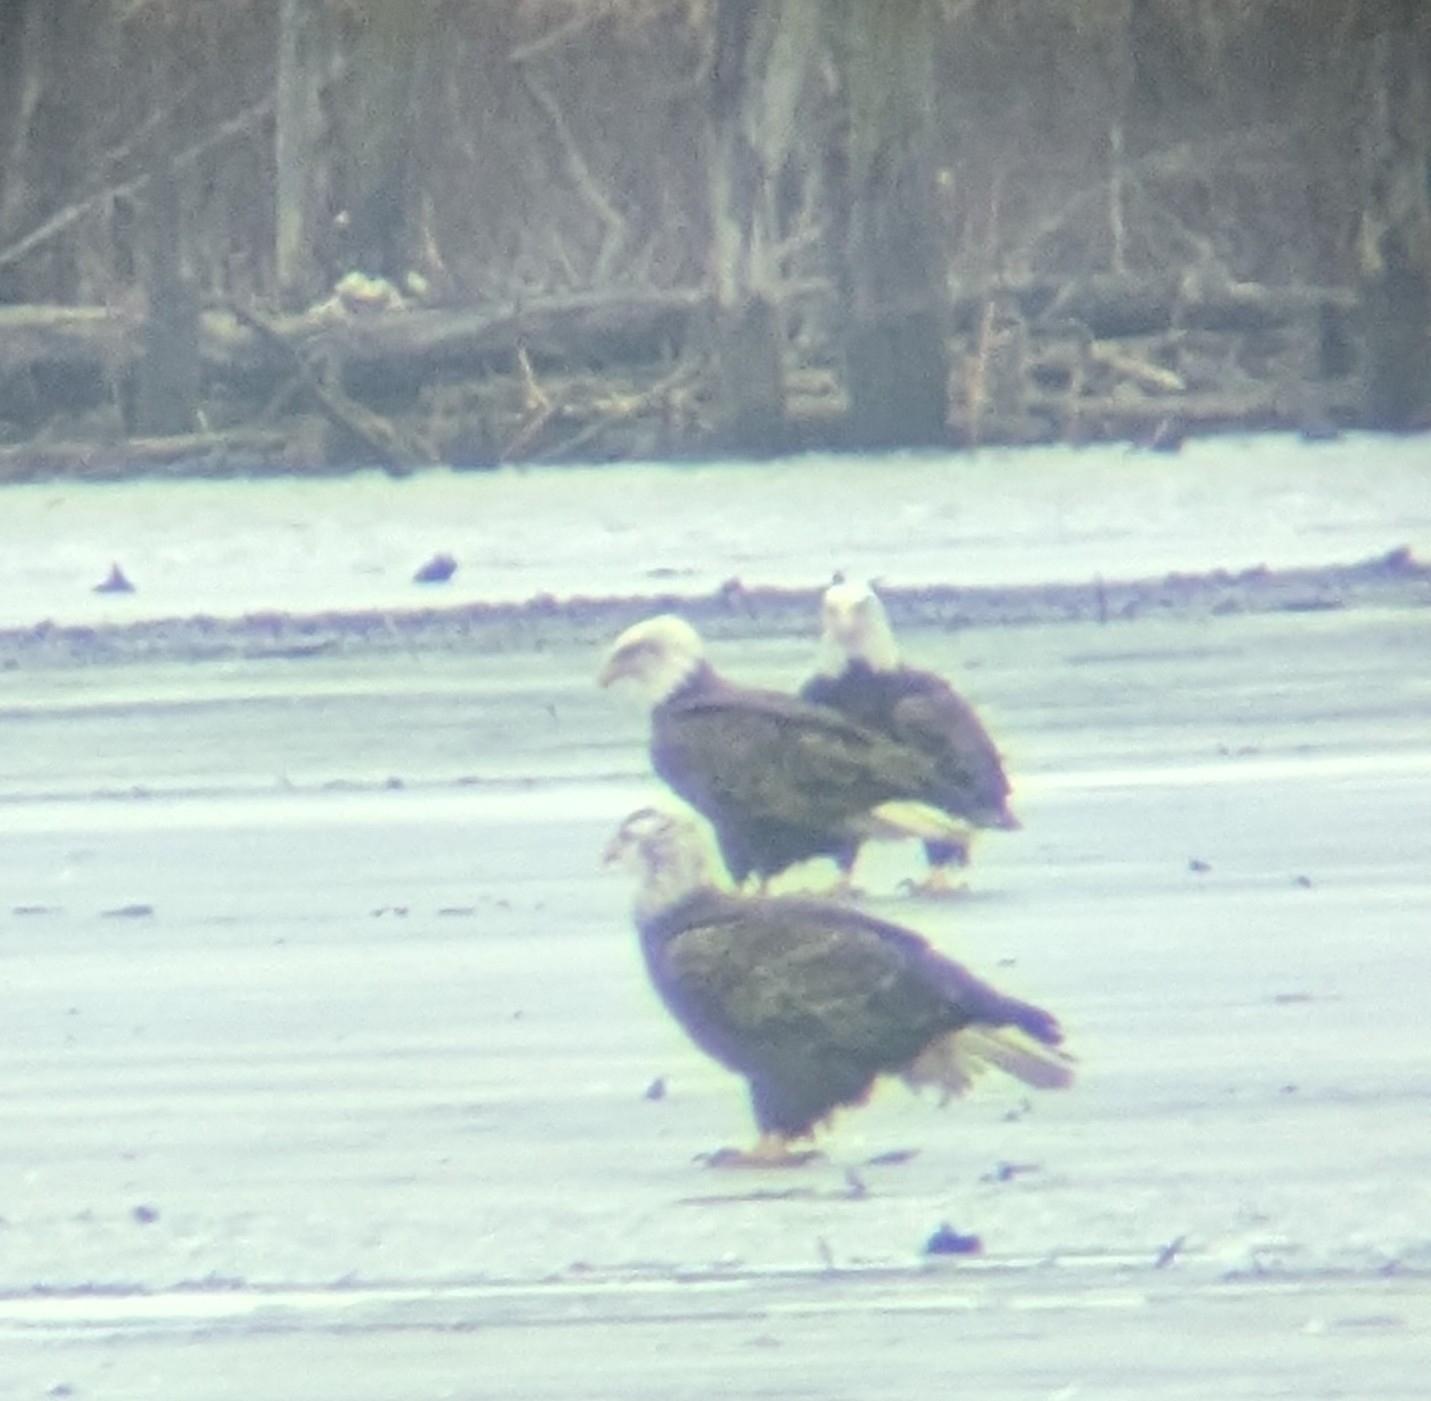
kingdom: Animalia
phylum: Chordata
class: Aves
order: Accipitriformes
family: Accipitridae
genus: Haliaeetus
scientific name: Haliaeetus leucocephalus
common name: Bald eagle
